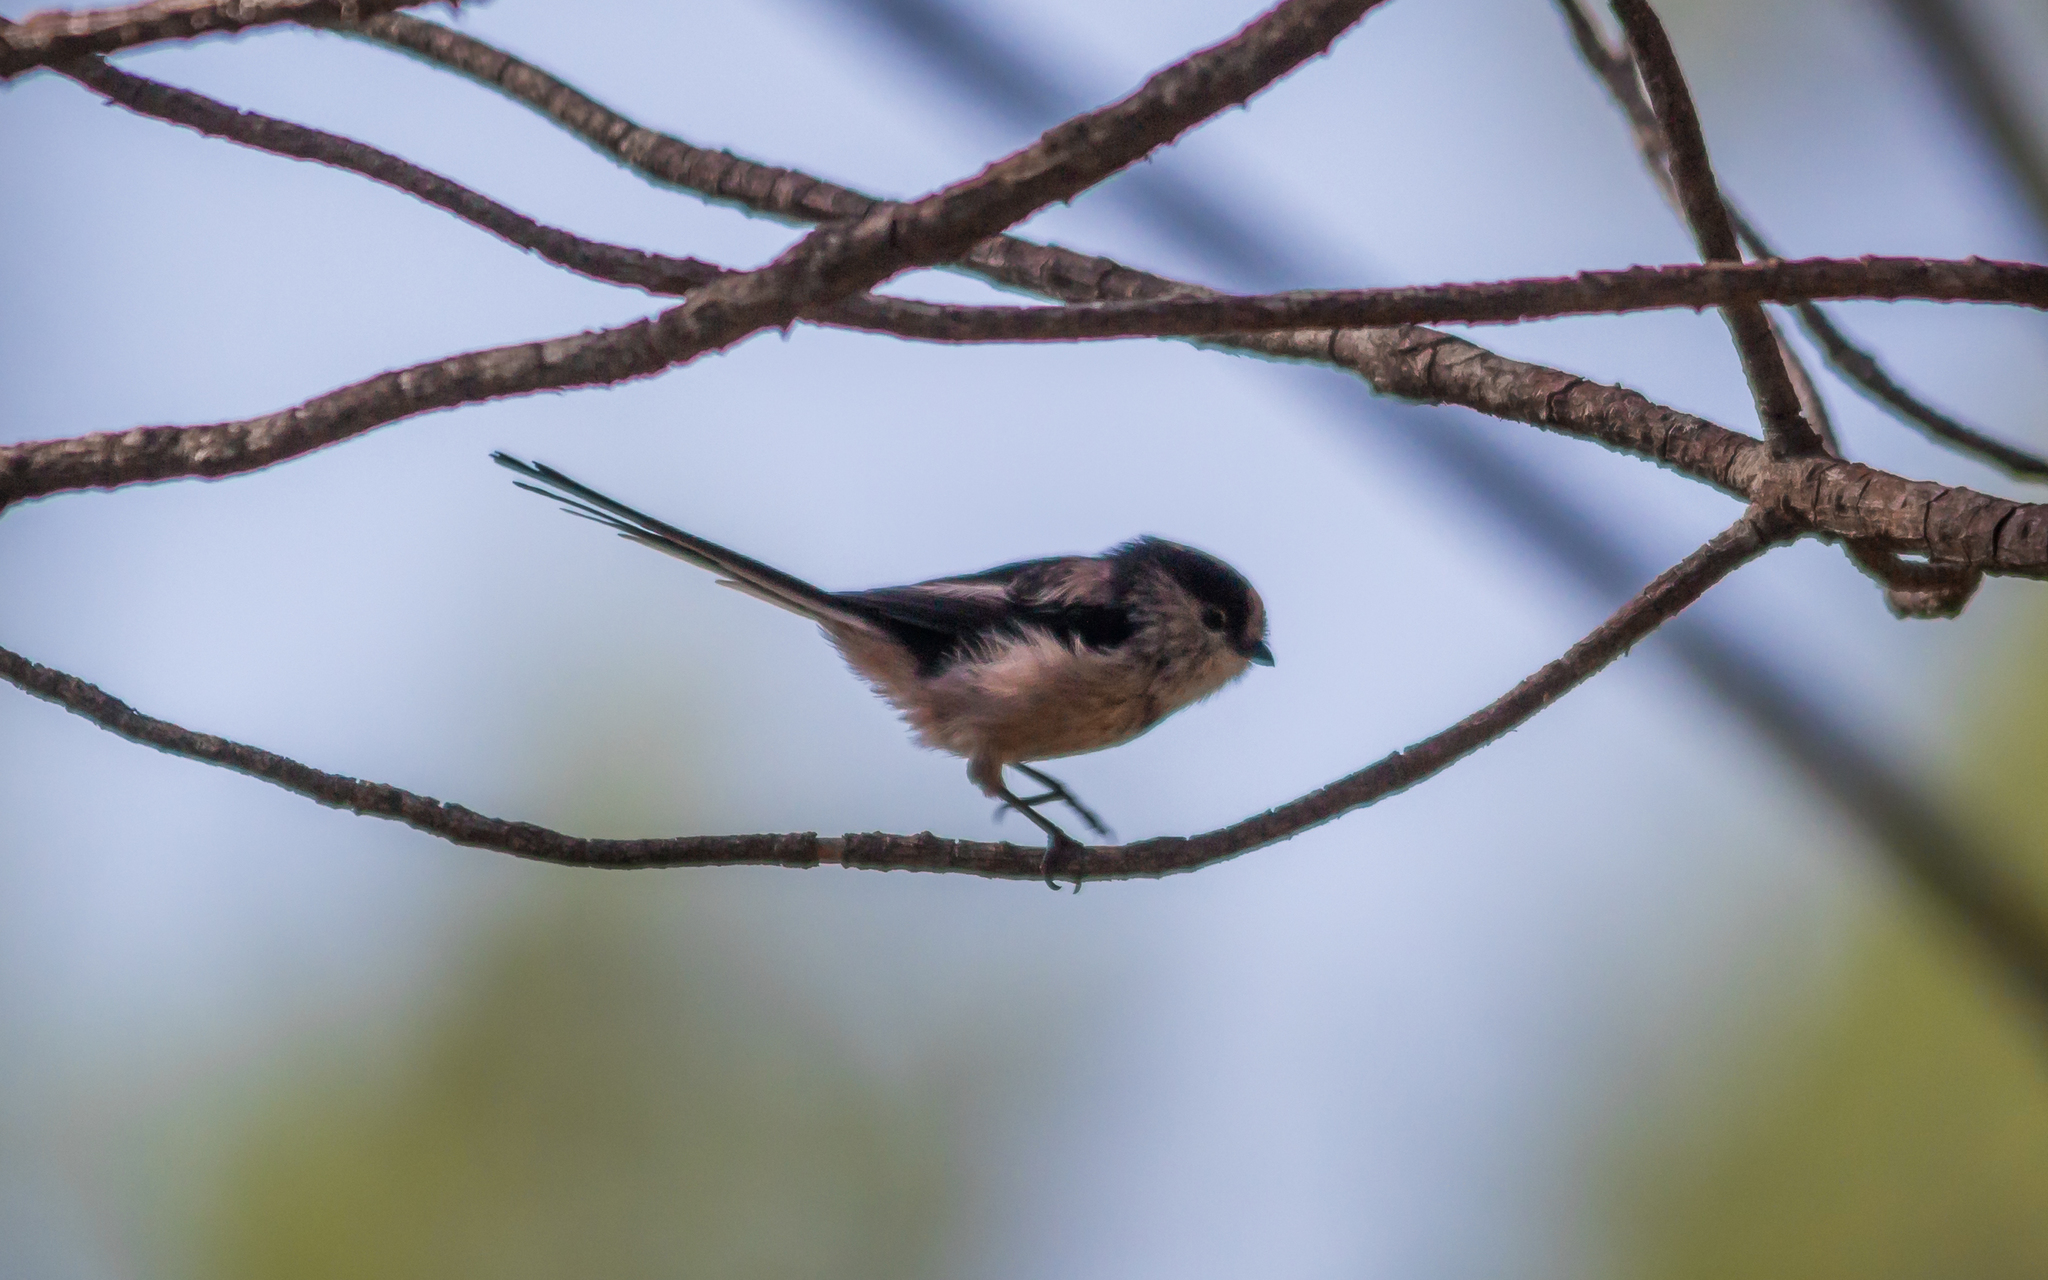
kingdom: Animalia
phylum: Chordata
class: Aves
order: Passeriformes
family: Aegithalidae
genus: Aegithalos
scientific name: Aegithalos caudatus
